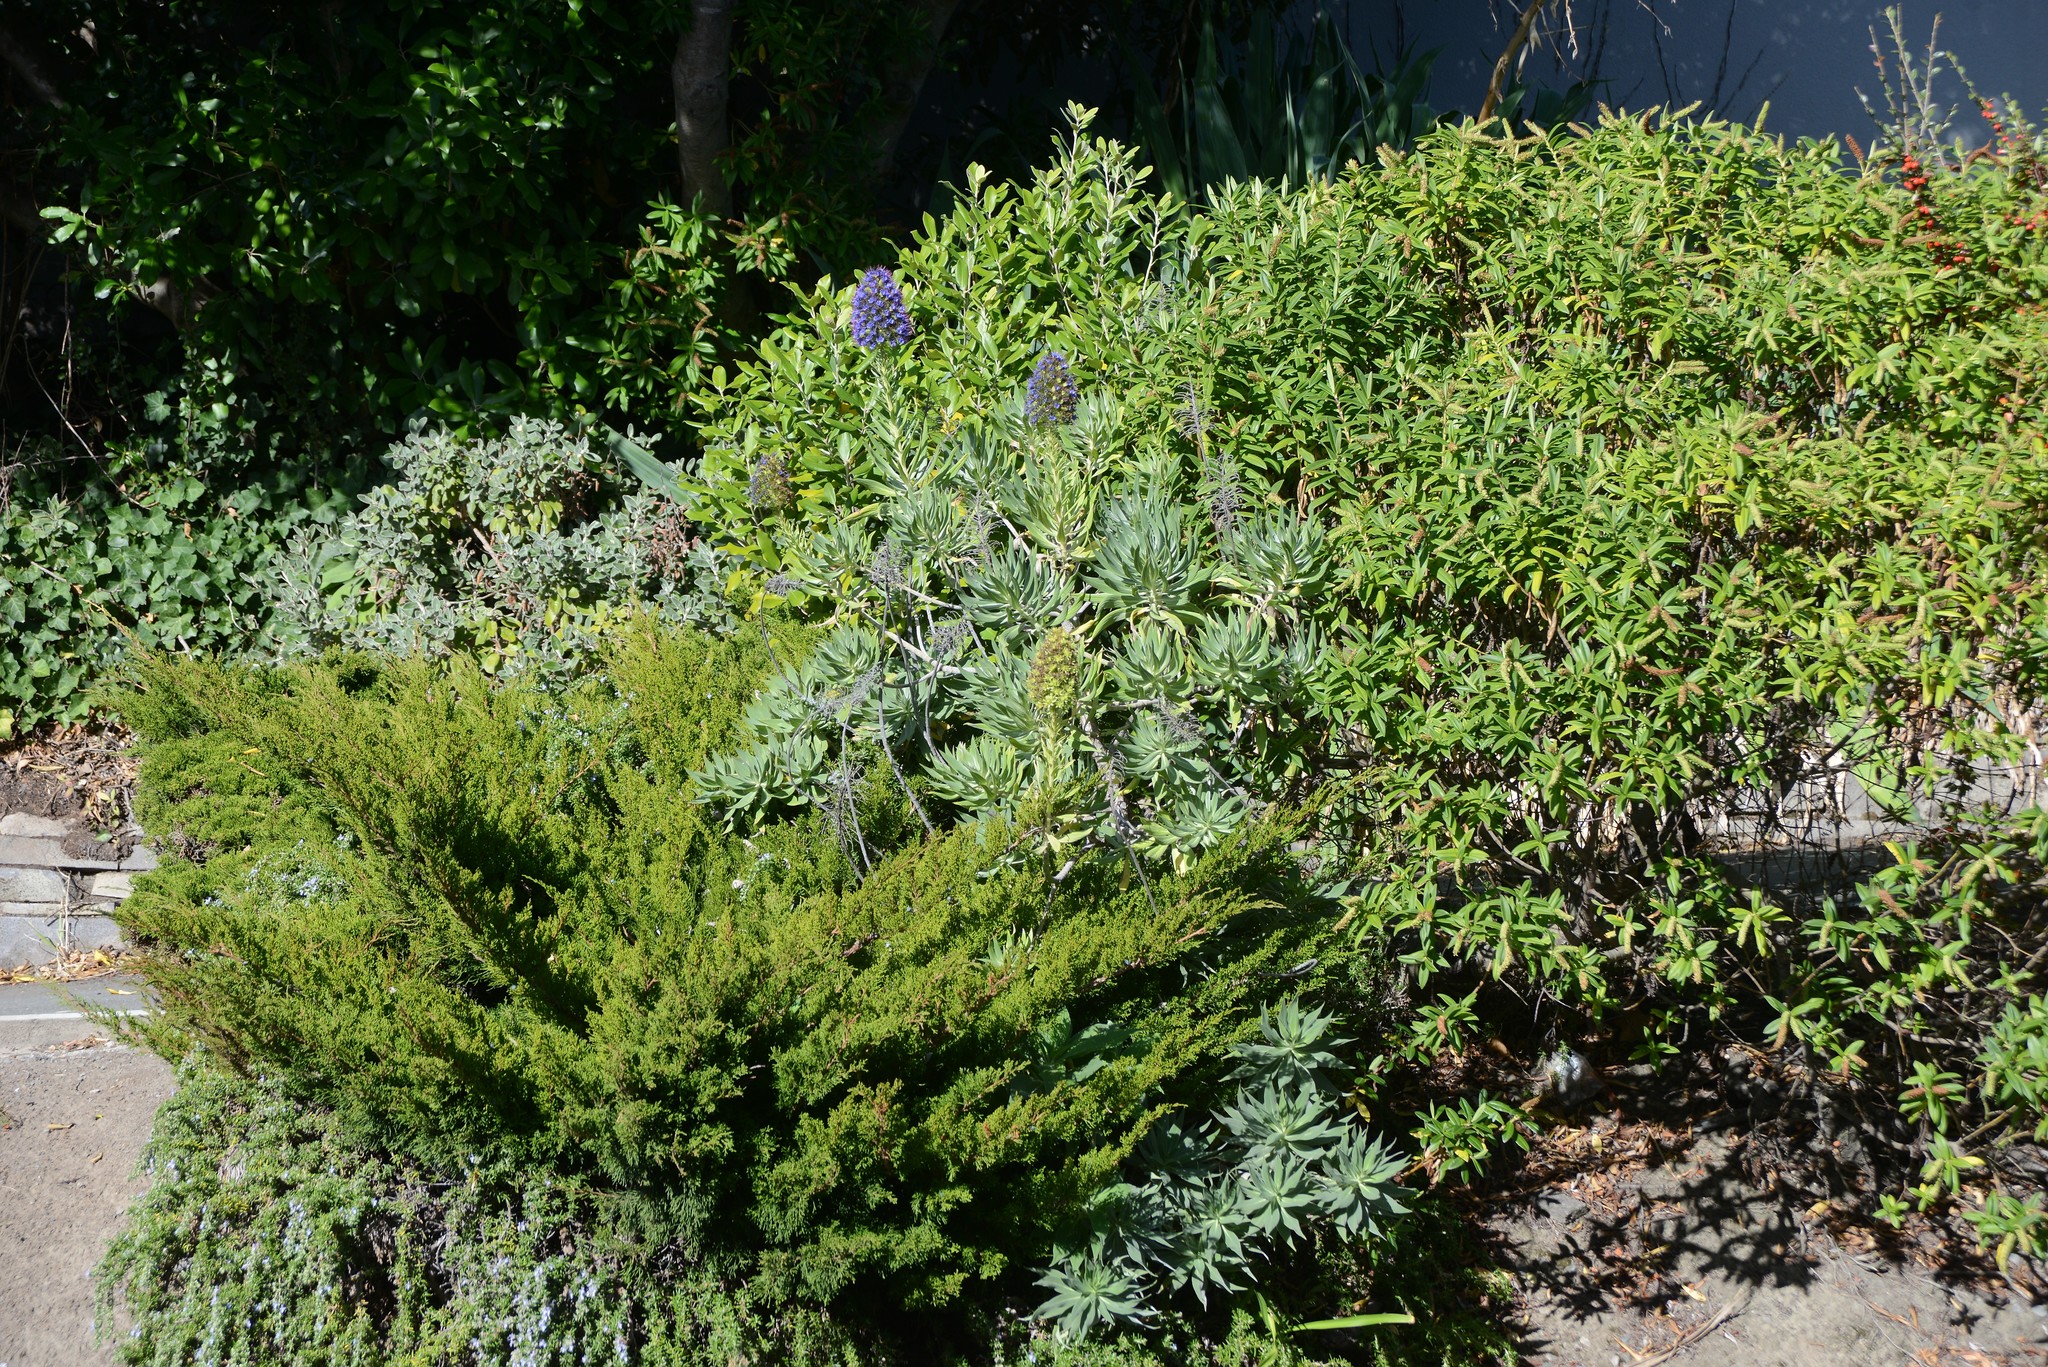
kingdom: Plantae
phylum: Tracheophyta
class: Magnoliopsida
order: Boraginales
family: Boraginaceae
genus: Echium
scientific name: Echium candicans
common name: Pride of madeira
